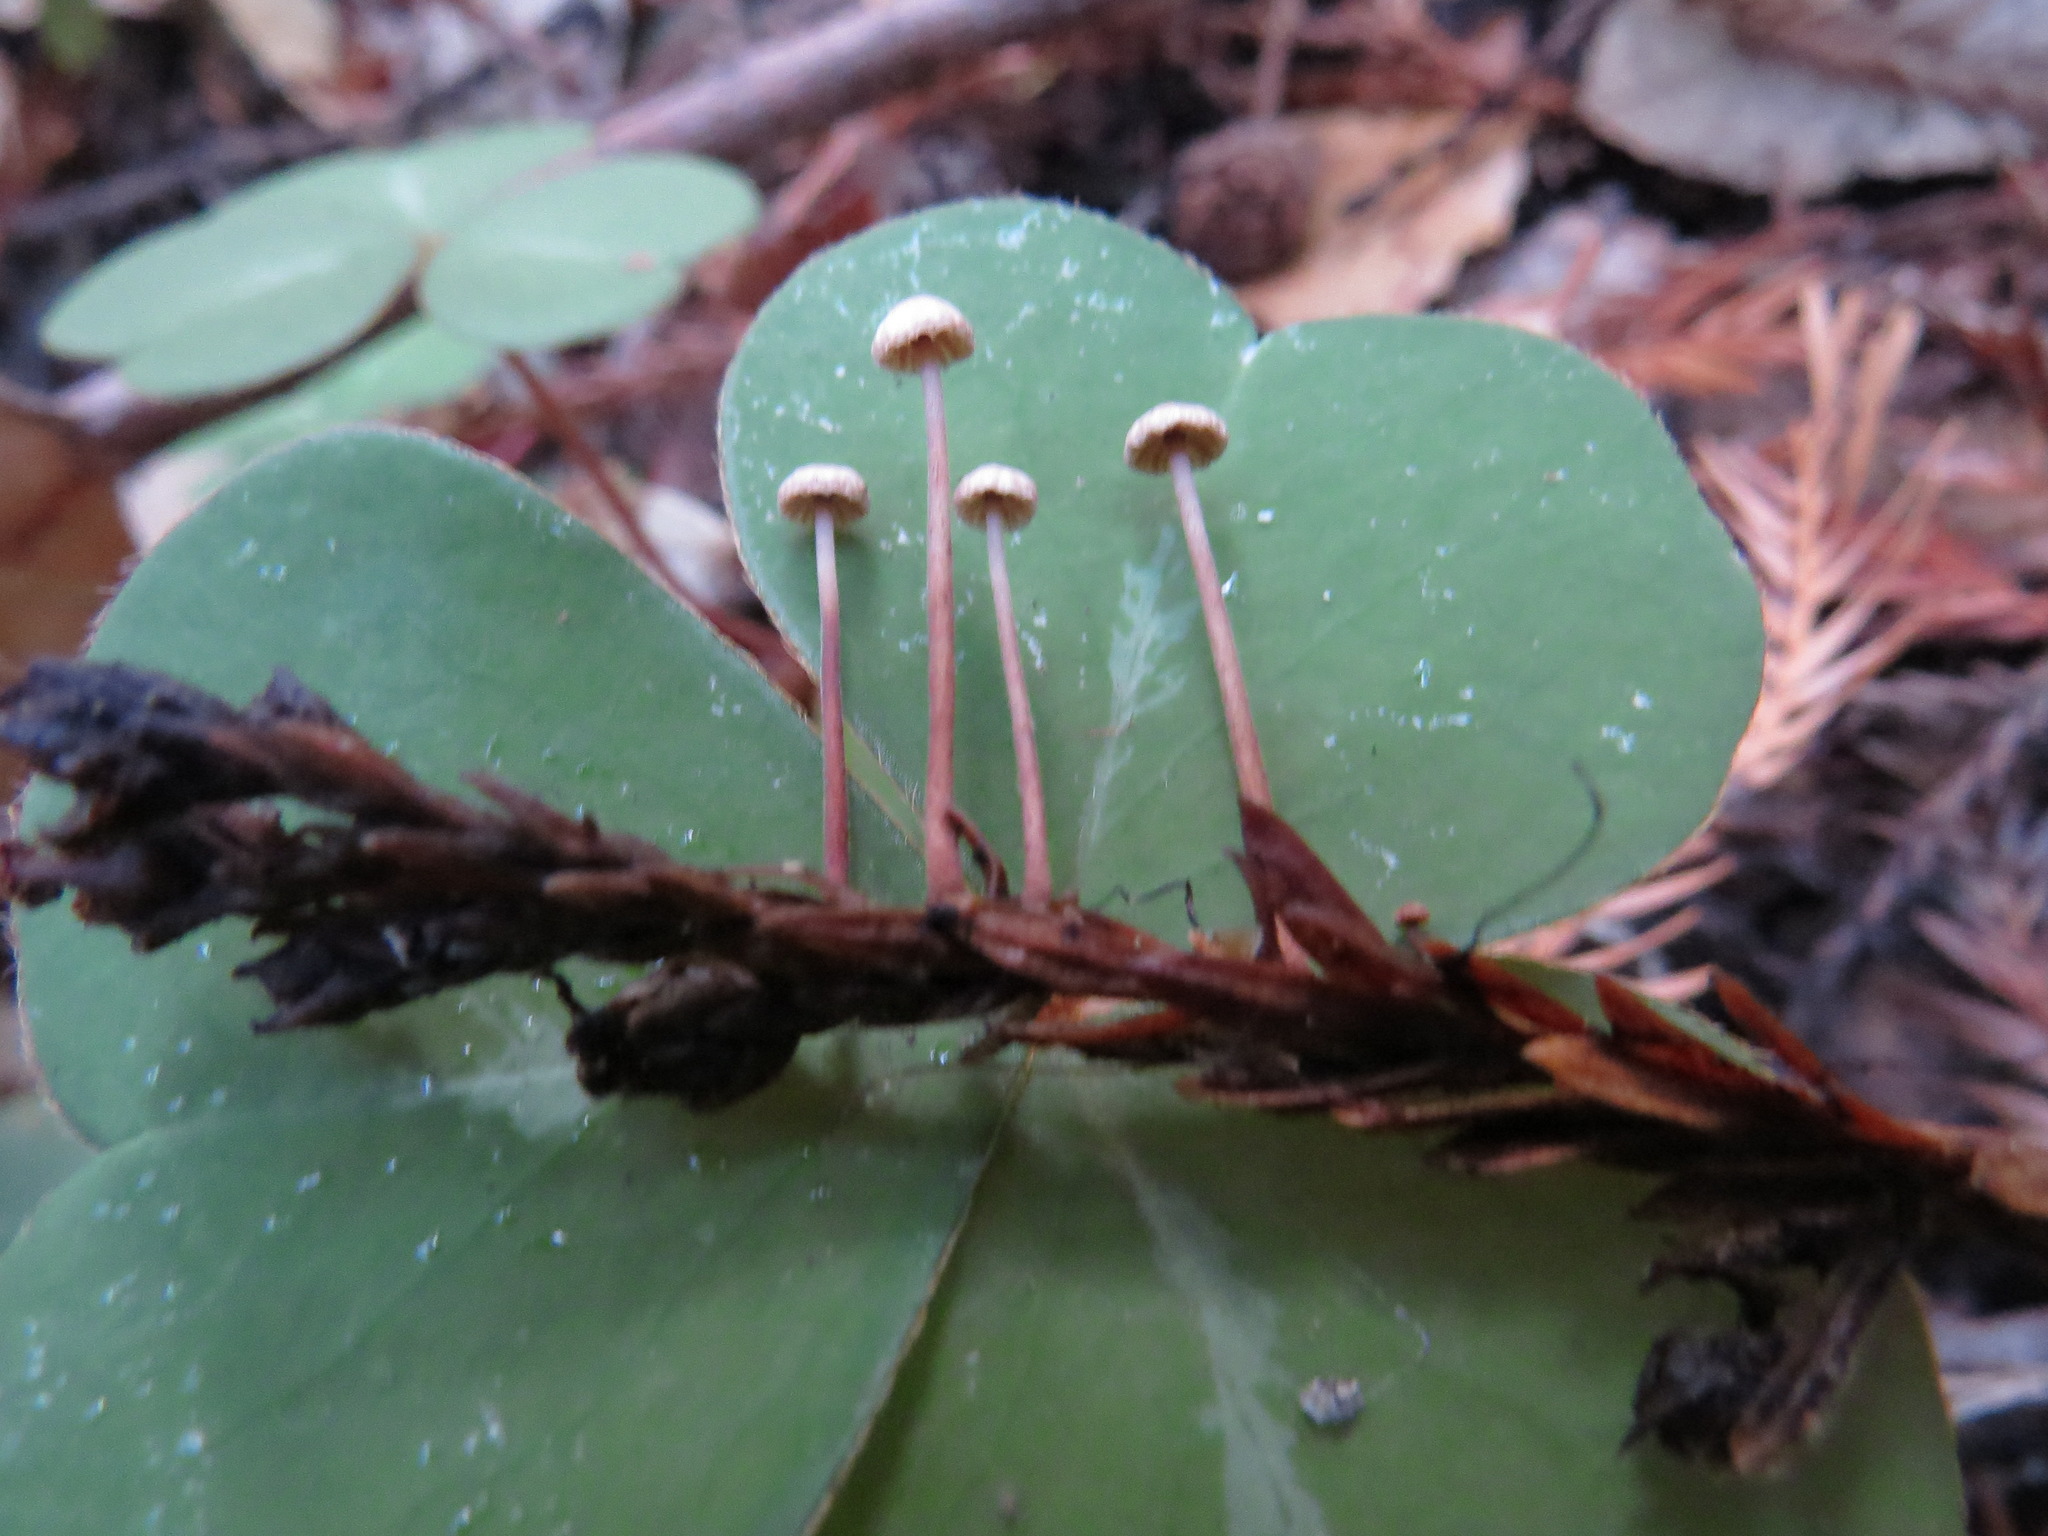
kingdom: Fungi
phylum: Basidiomycota
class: Agaricomycetes
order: Agaricales
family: Omphalotaceae
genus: Paragymnopus
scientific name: Paragymnopus sequoiae
